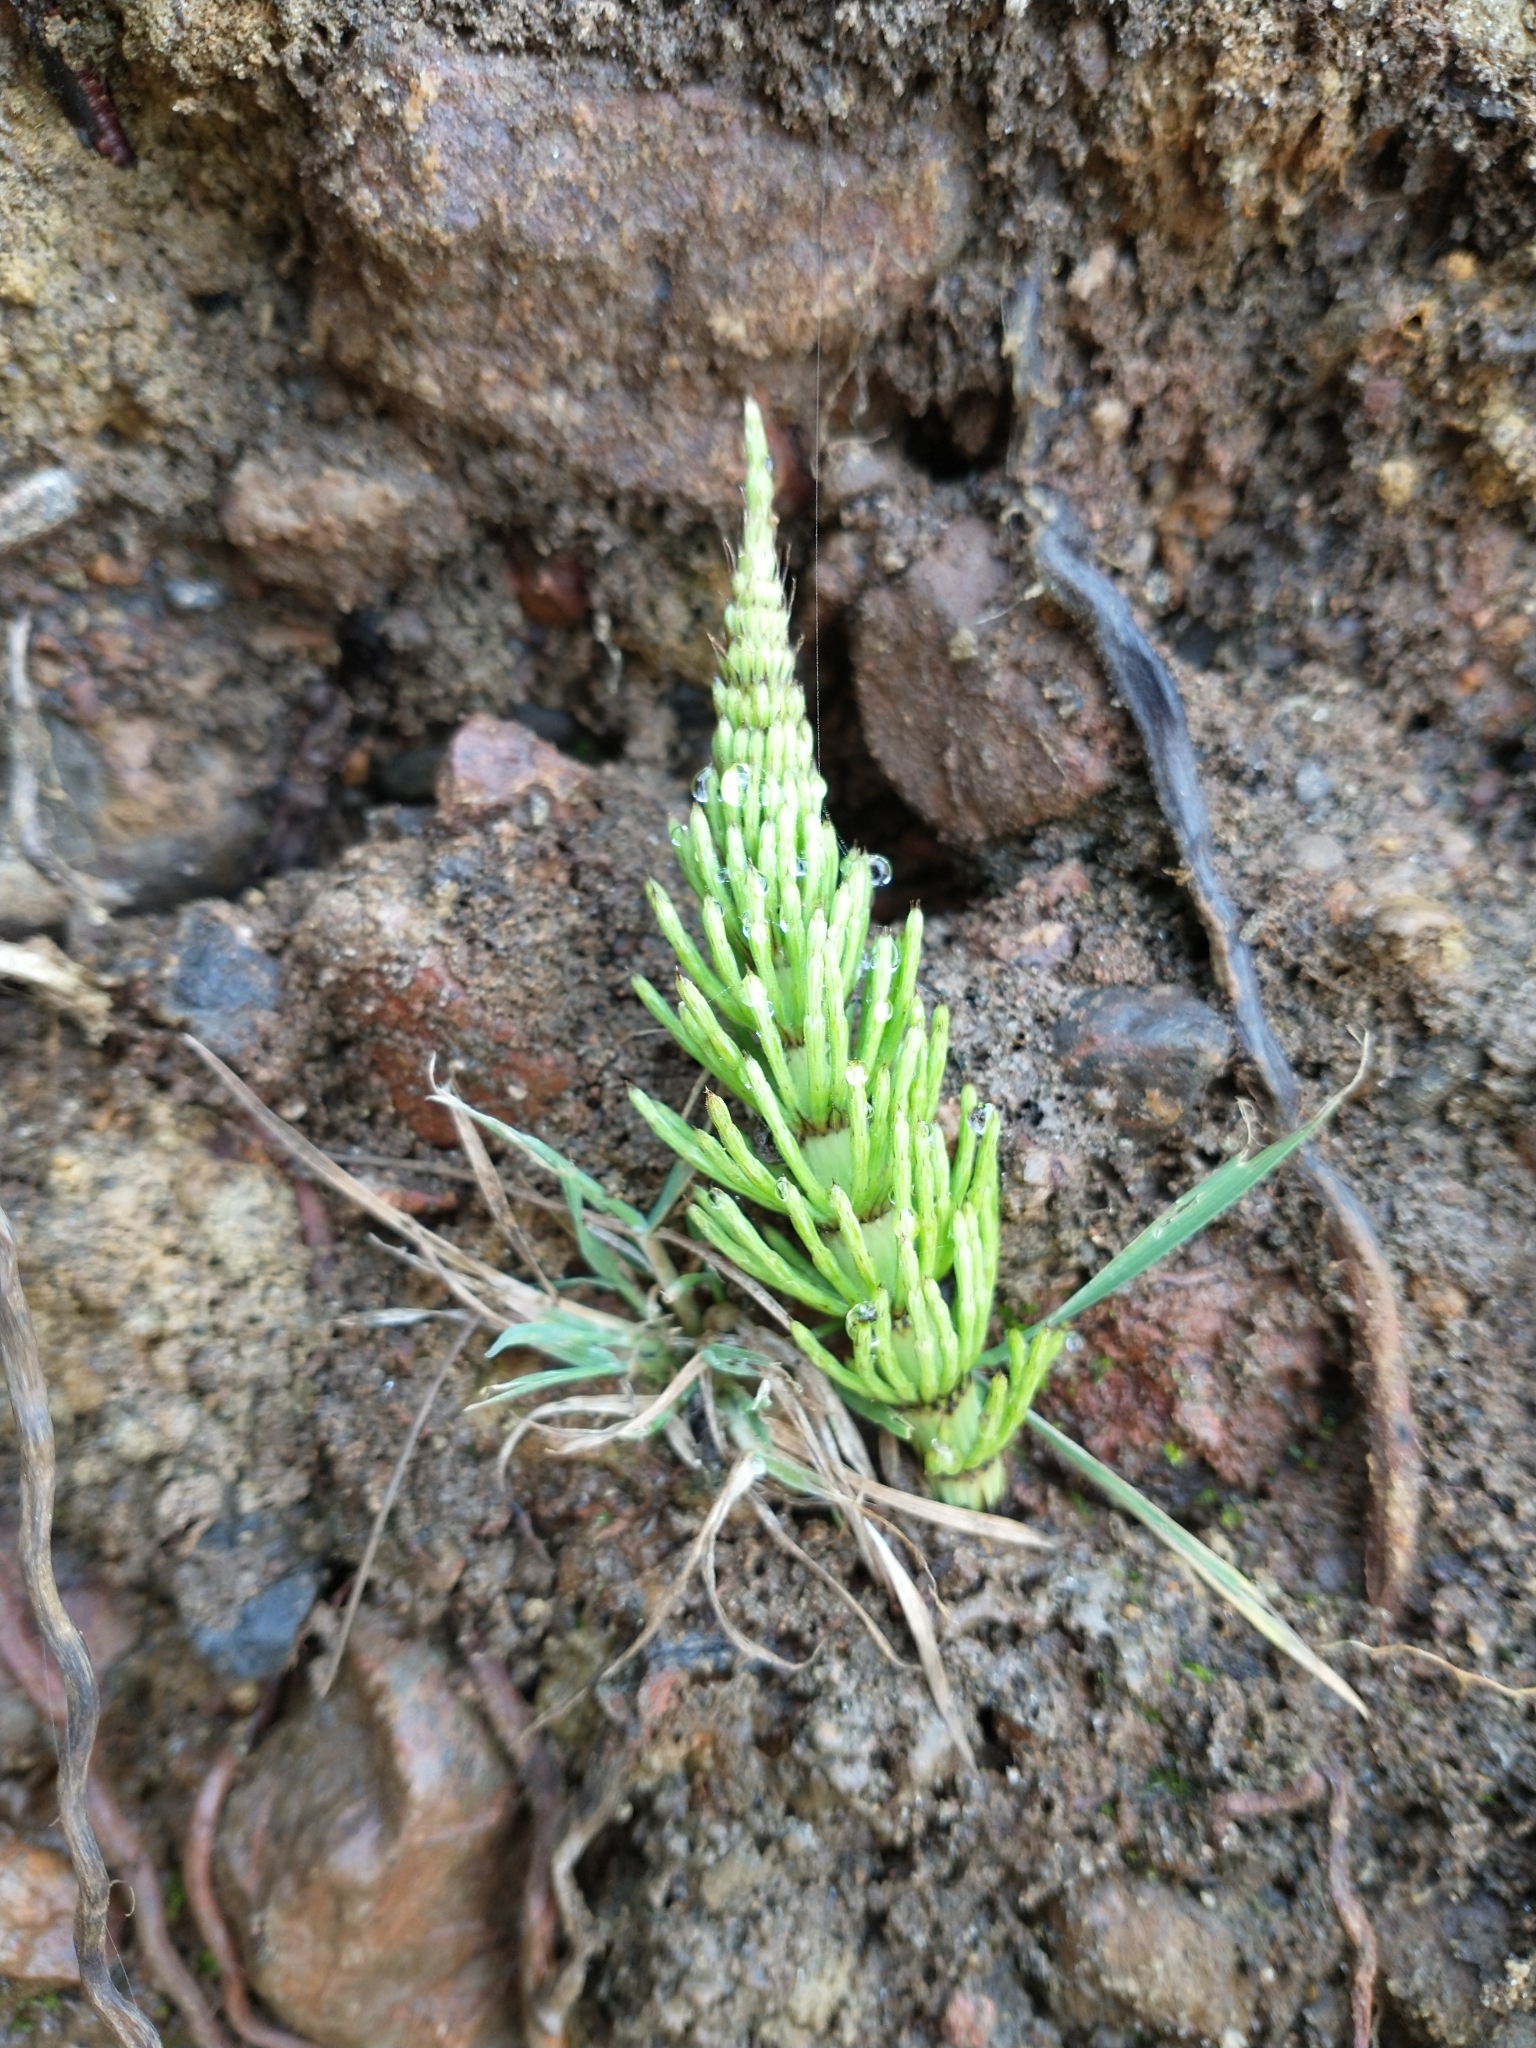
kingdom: Plantae
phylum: Tracheophyta
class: Polypodiopsida
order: Equisetales
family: Equisetaceae
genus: Equisetum
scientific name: Equisetum arvense
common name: Field horsetail
